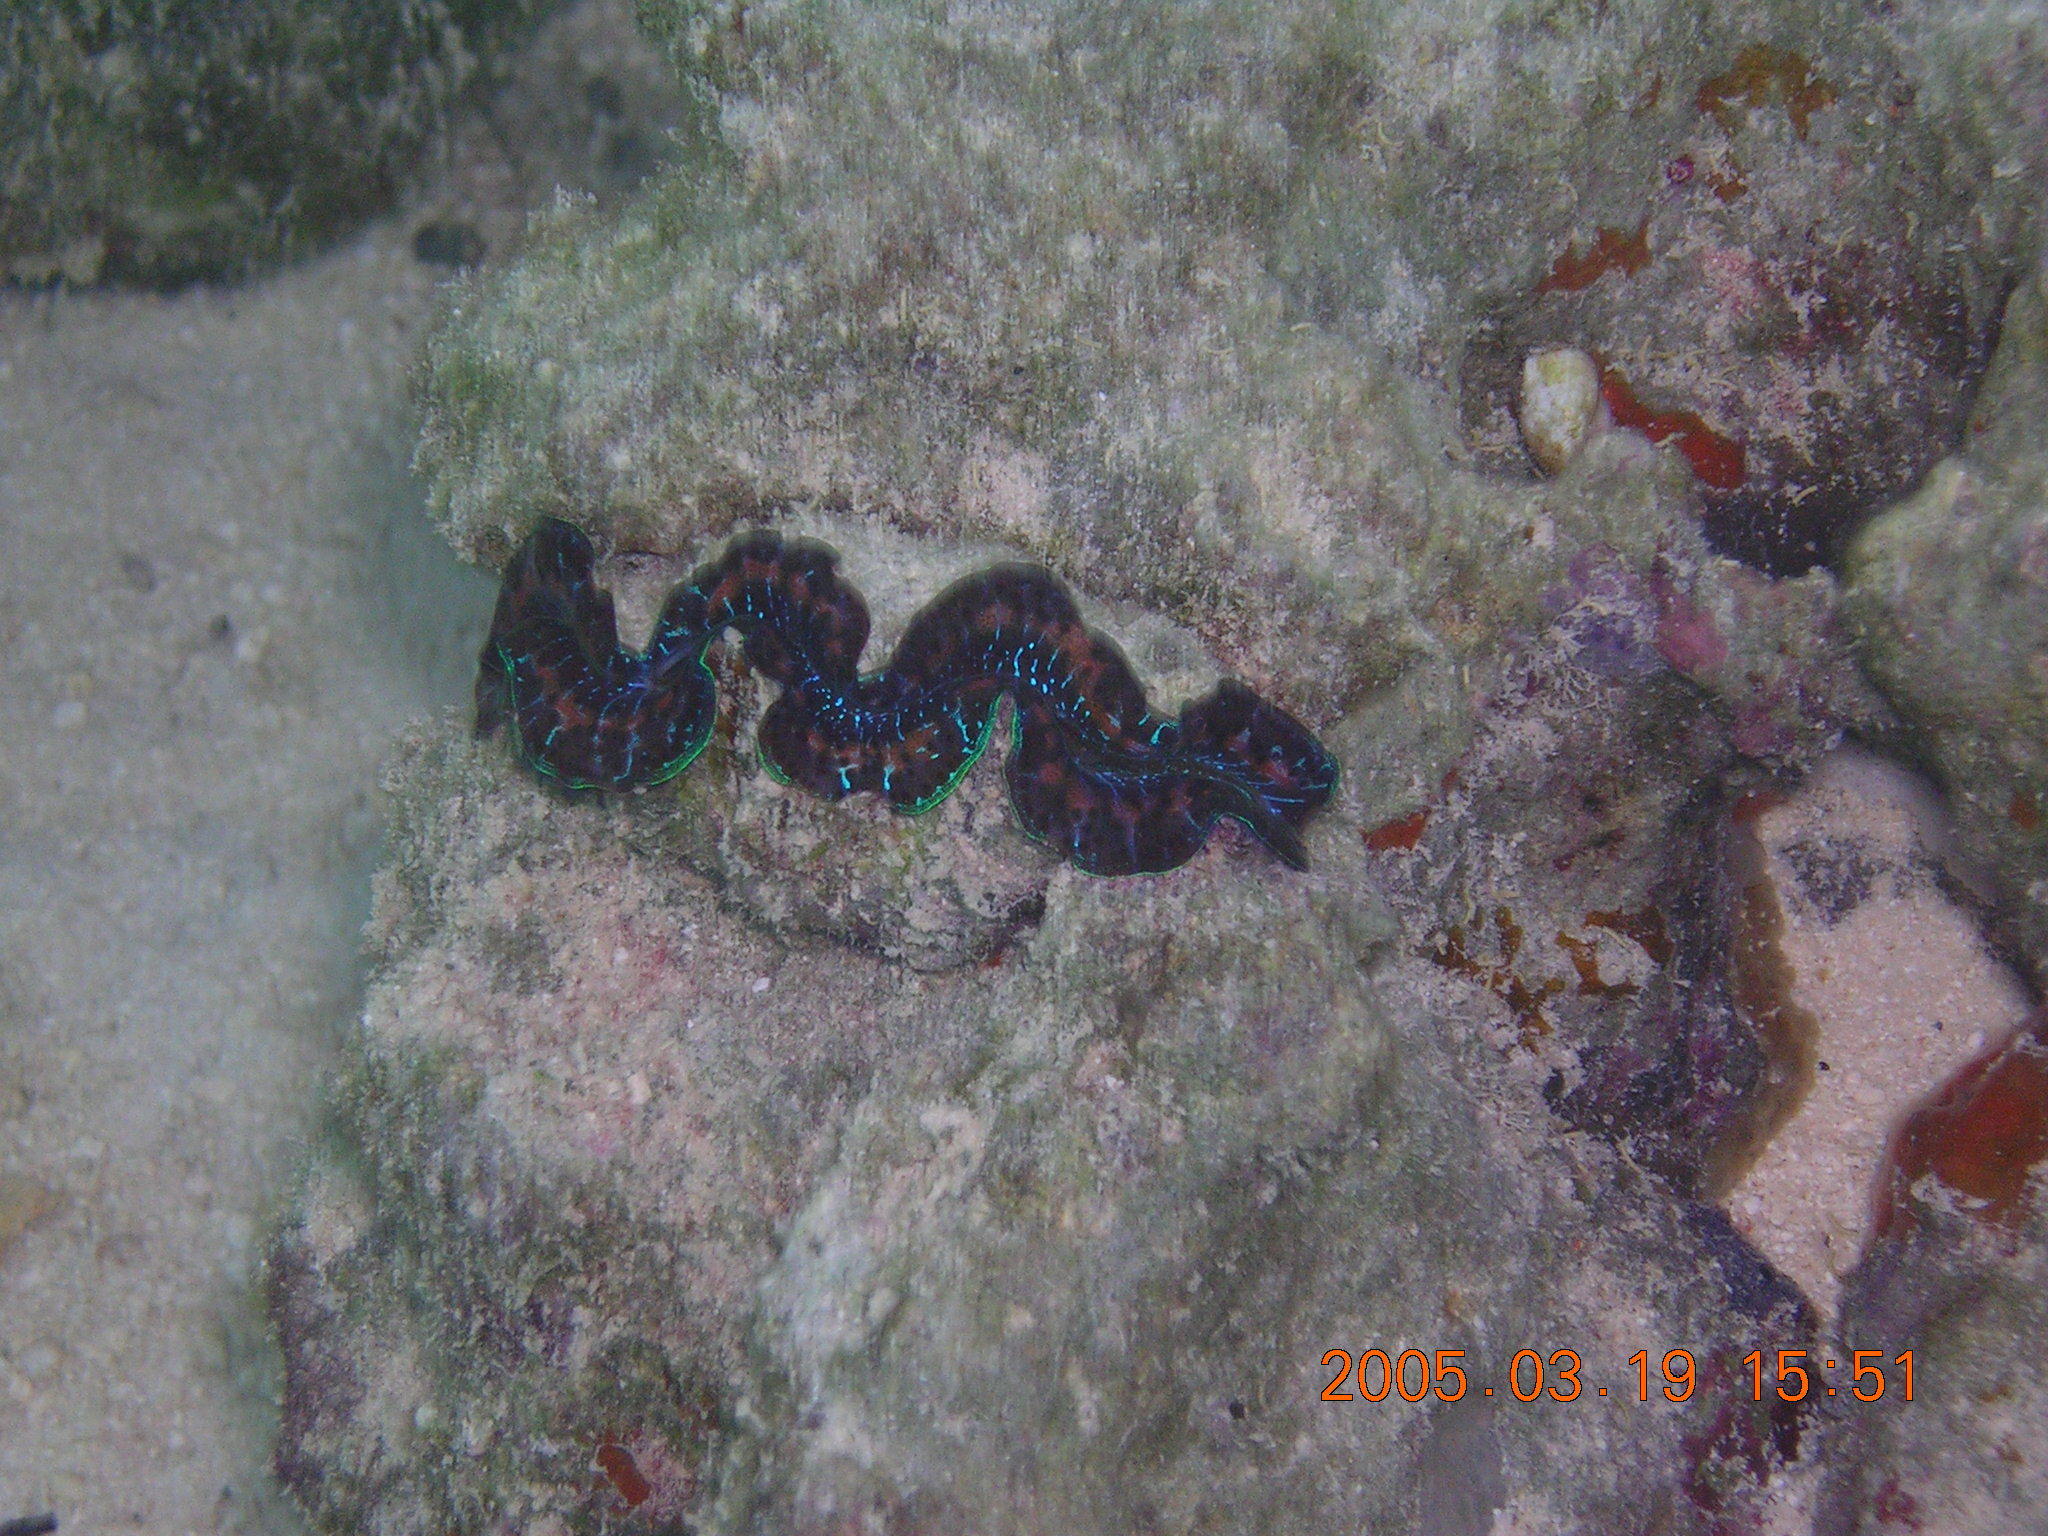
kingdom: Animalia
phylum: Mollusca
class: Bivalvia
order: Cardiida
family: Cardiidae
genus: Tridacna
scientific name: Tridacna maxima
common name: Small giant clam
